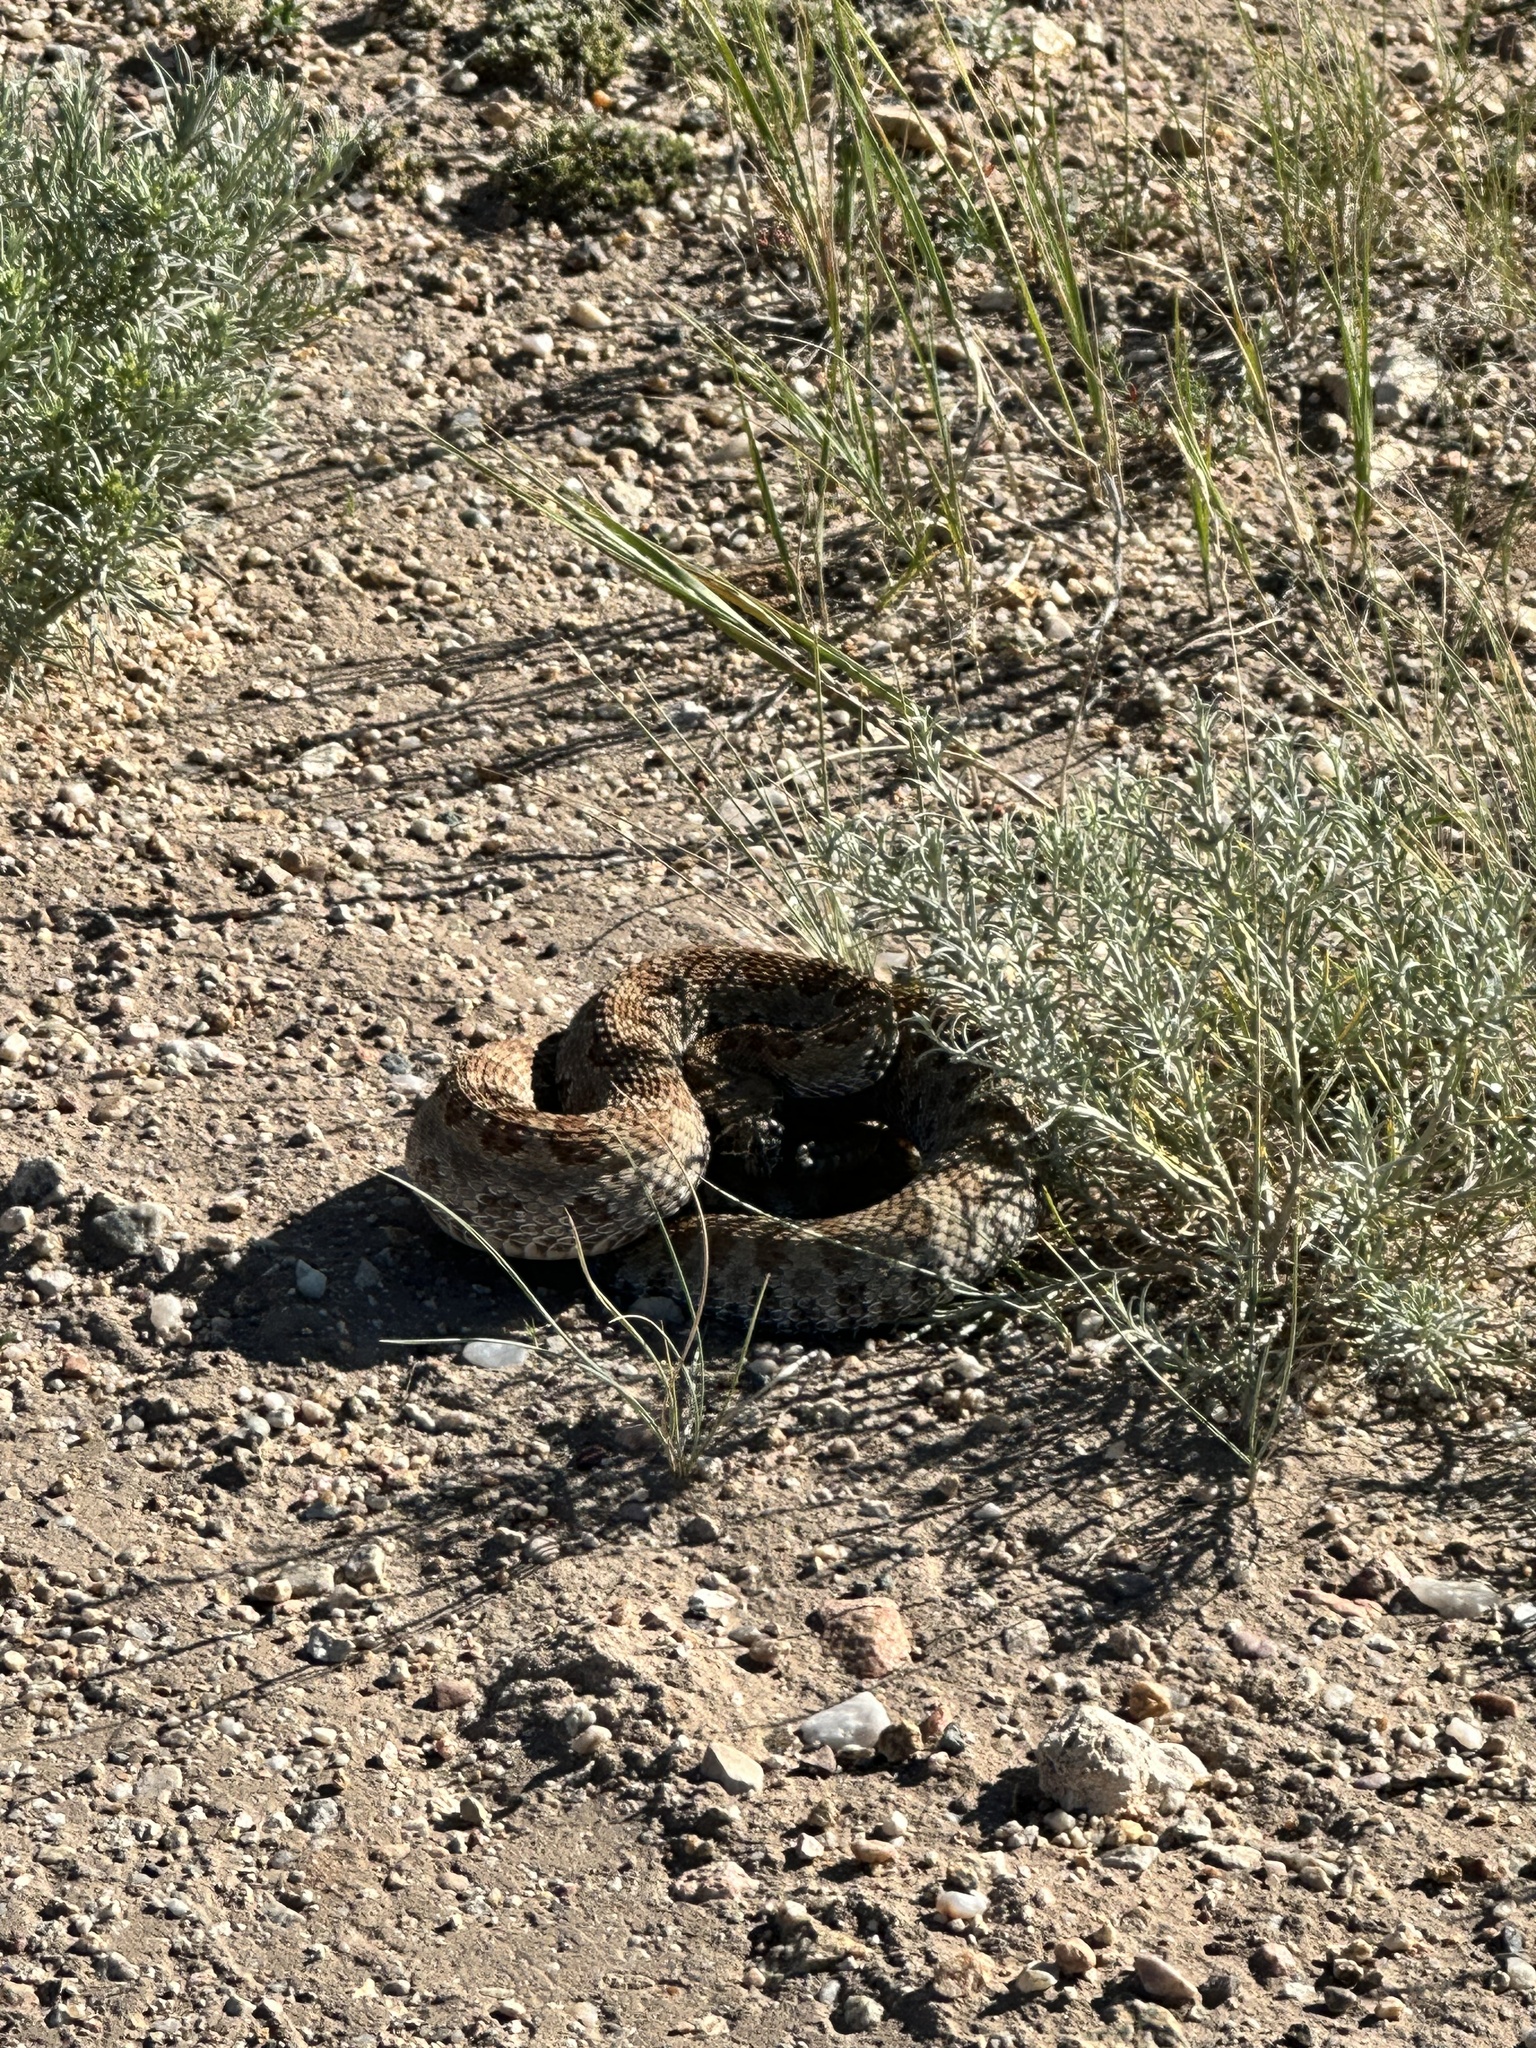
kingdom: Animalia
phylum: Chordata
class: Squamata
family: Viperidae
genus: Crotalus
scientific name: Crotalus viridis
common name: Prairie rattlesnake
